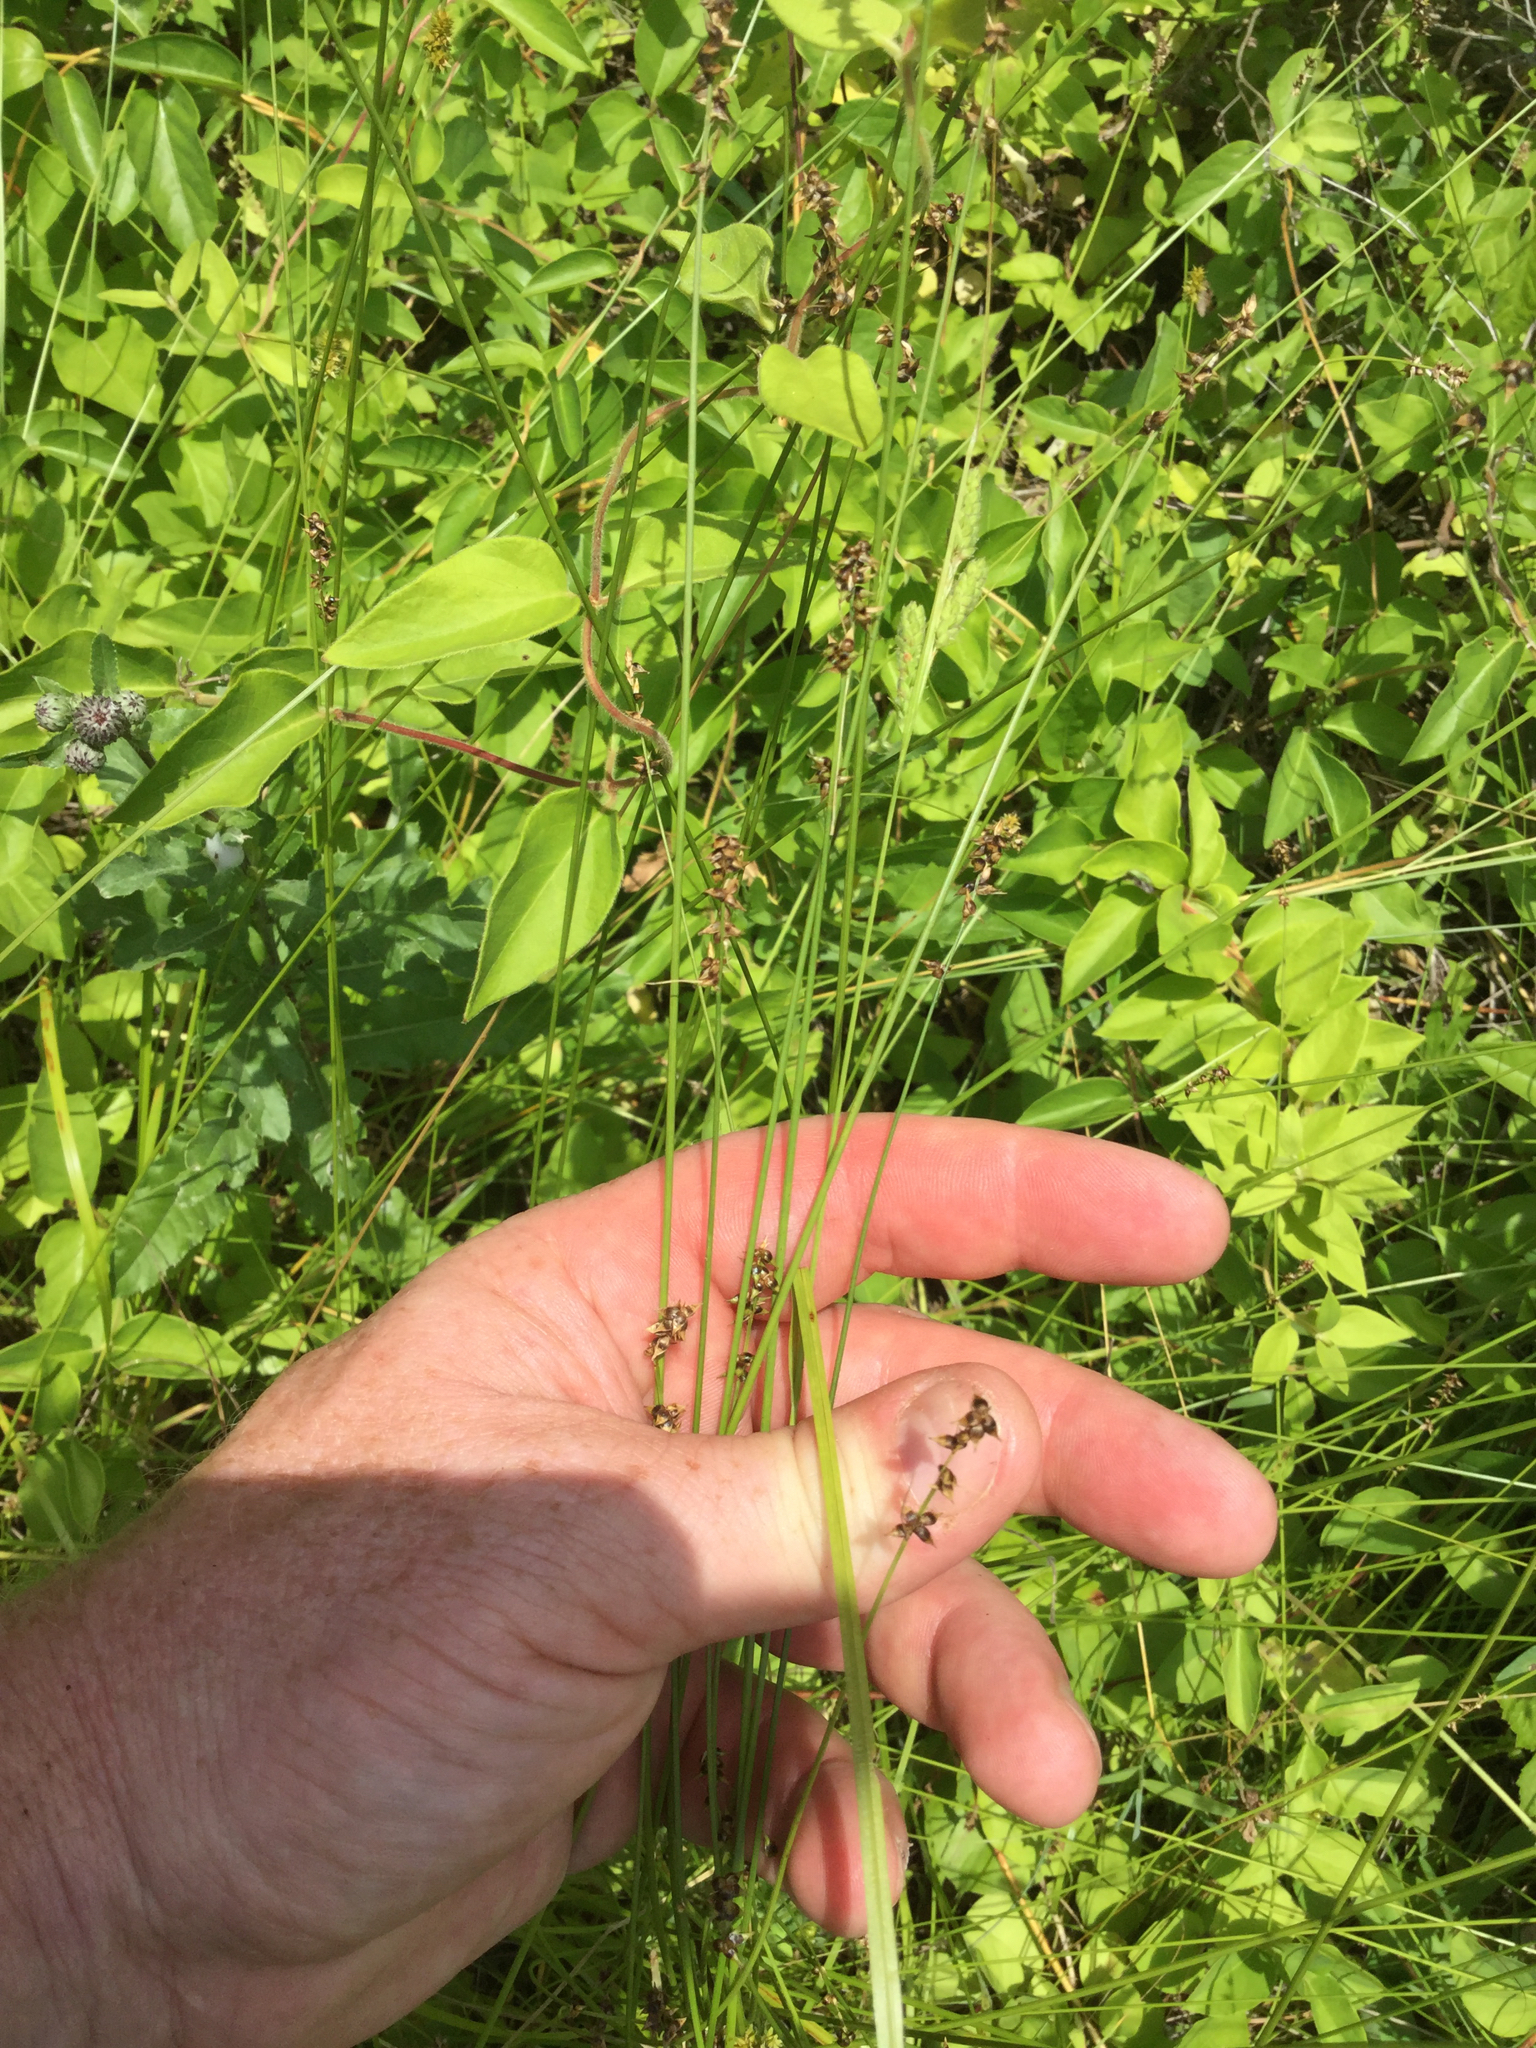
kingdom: Plantae
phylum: Tracheophyta
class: Liliopsida
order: Poales
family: Cyperaceae
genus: Carex
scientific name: Carex retroflexa
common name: Reflexed sedge
